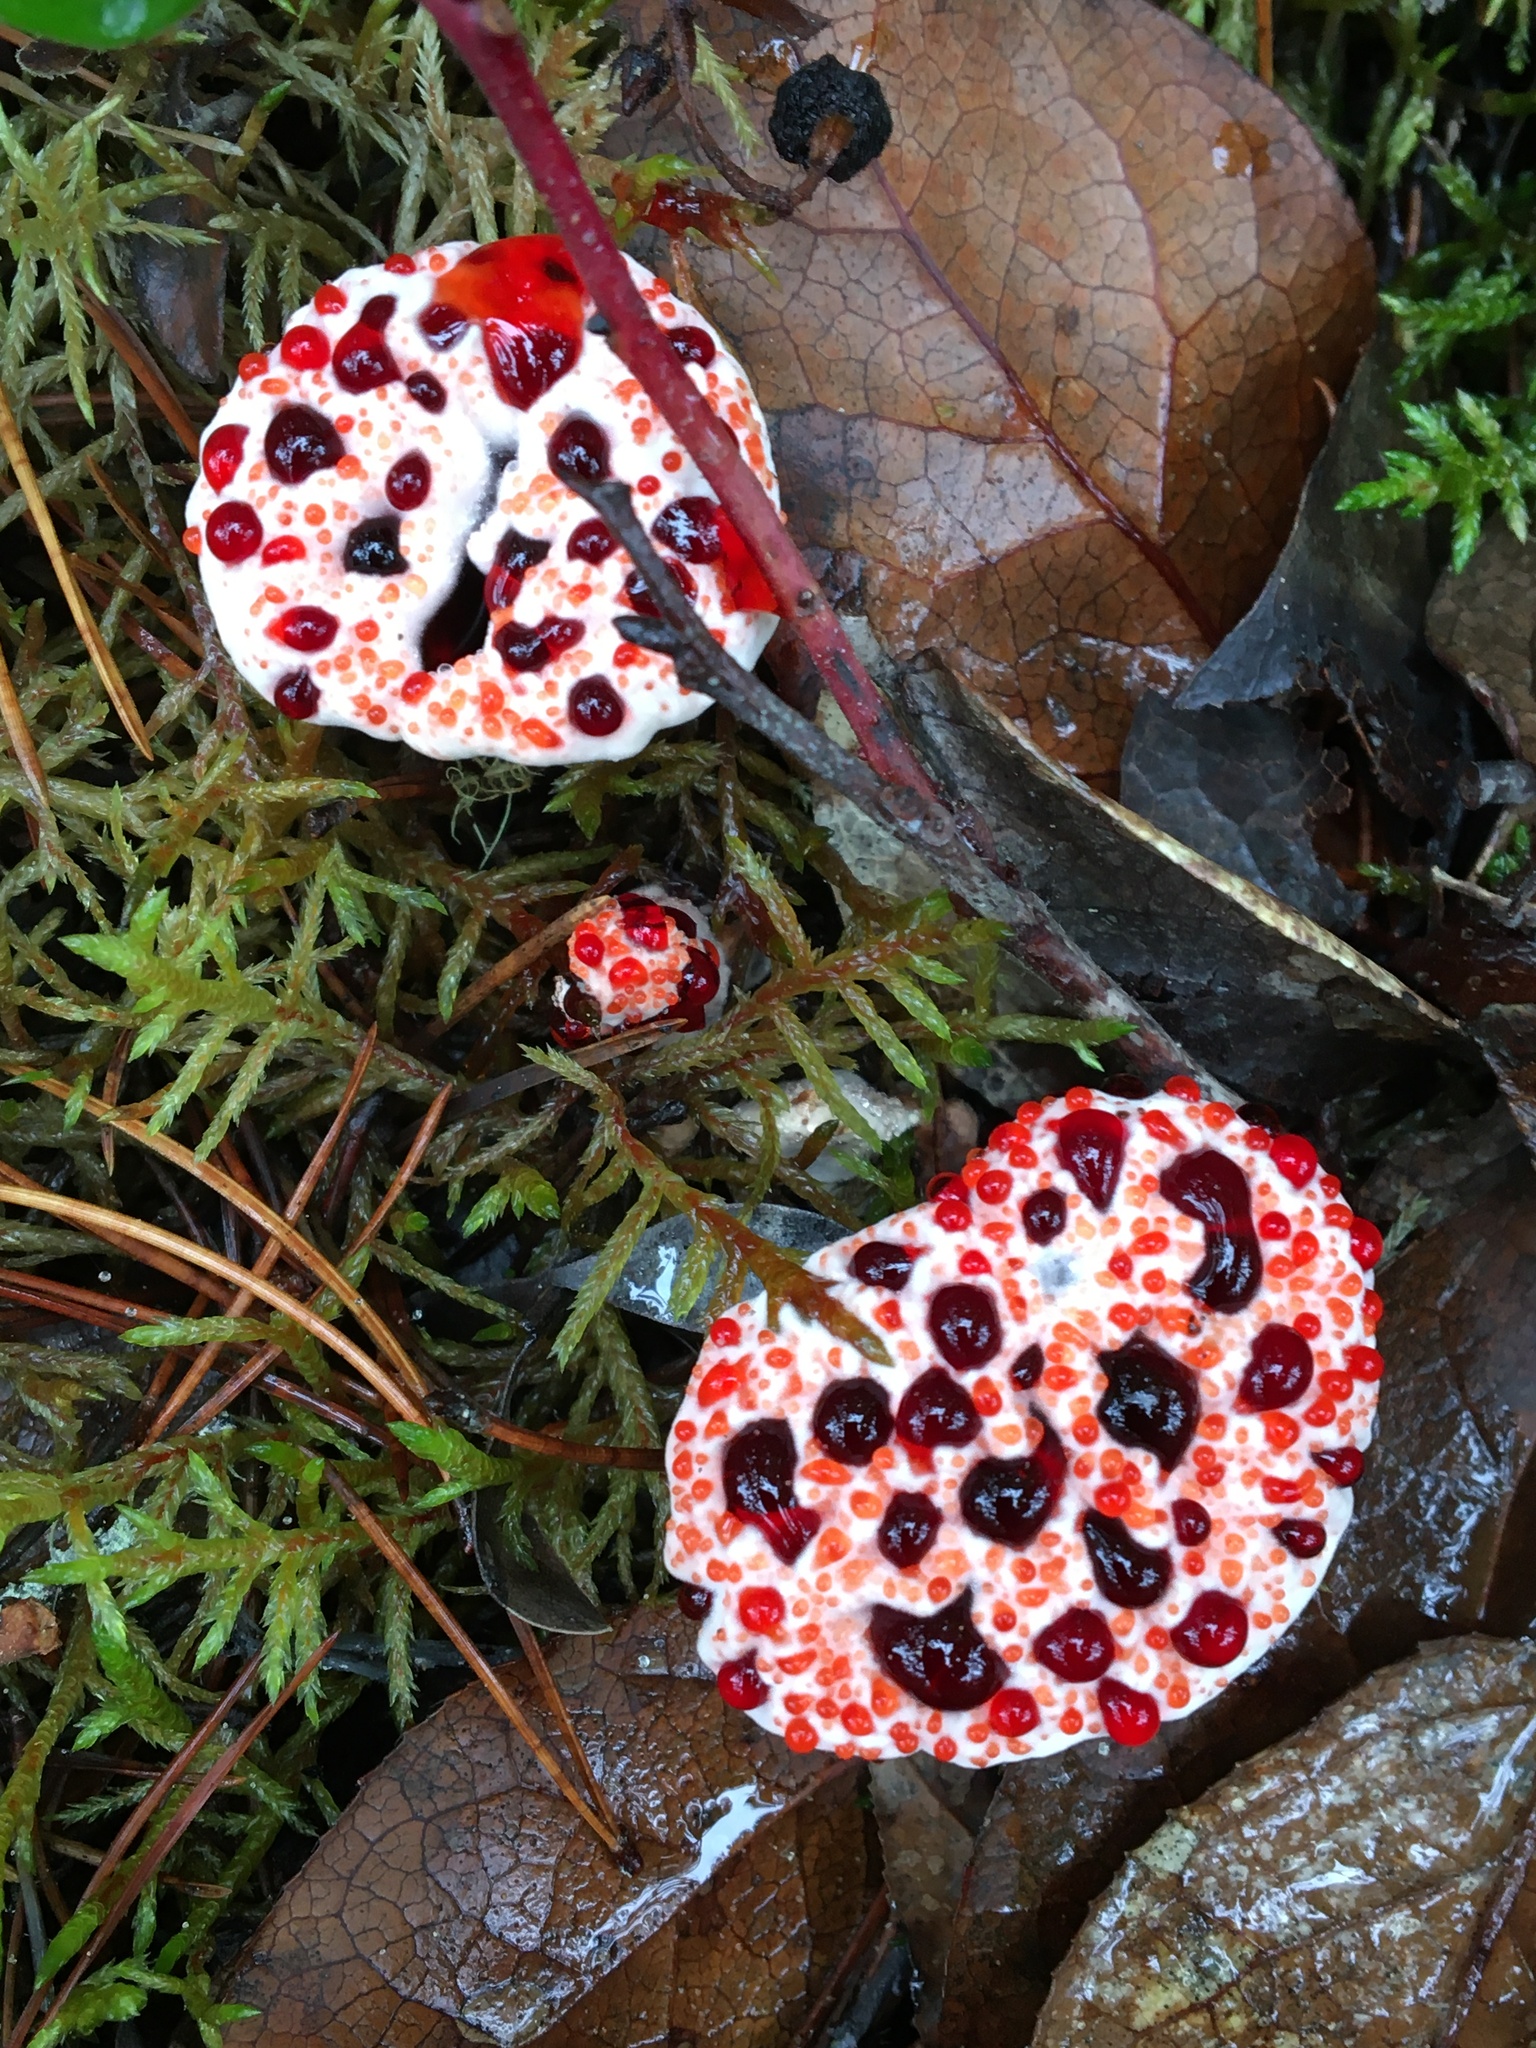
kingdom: Fungi
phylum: Basidiomycota
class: Agaricomycetes
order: Thelephorales
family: Bankeraceae
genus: Hydnellum
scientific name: Hydnellum peckii
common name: Devil's tooth
